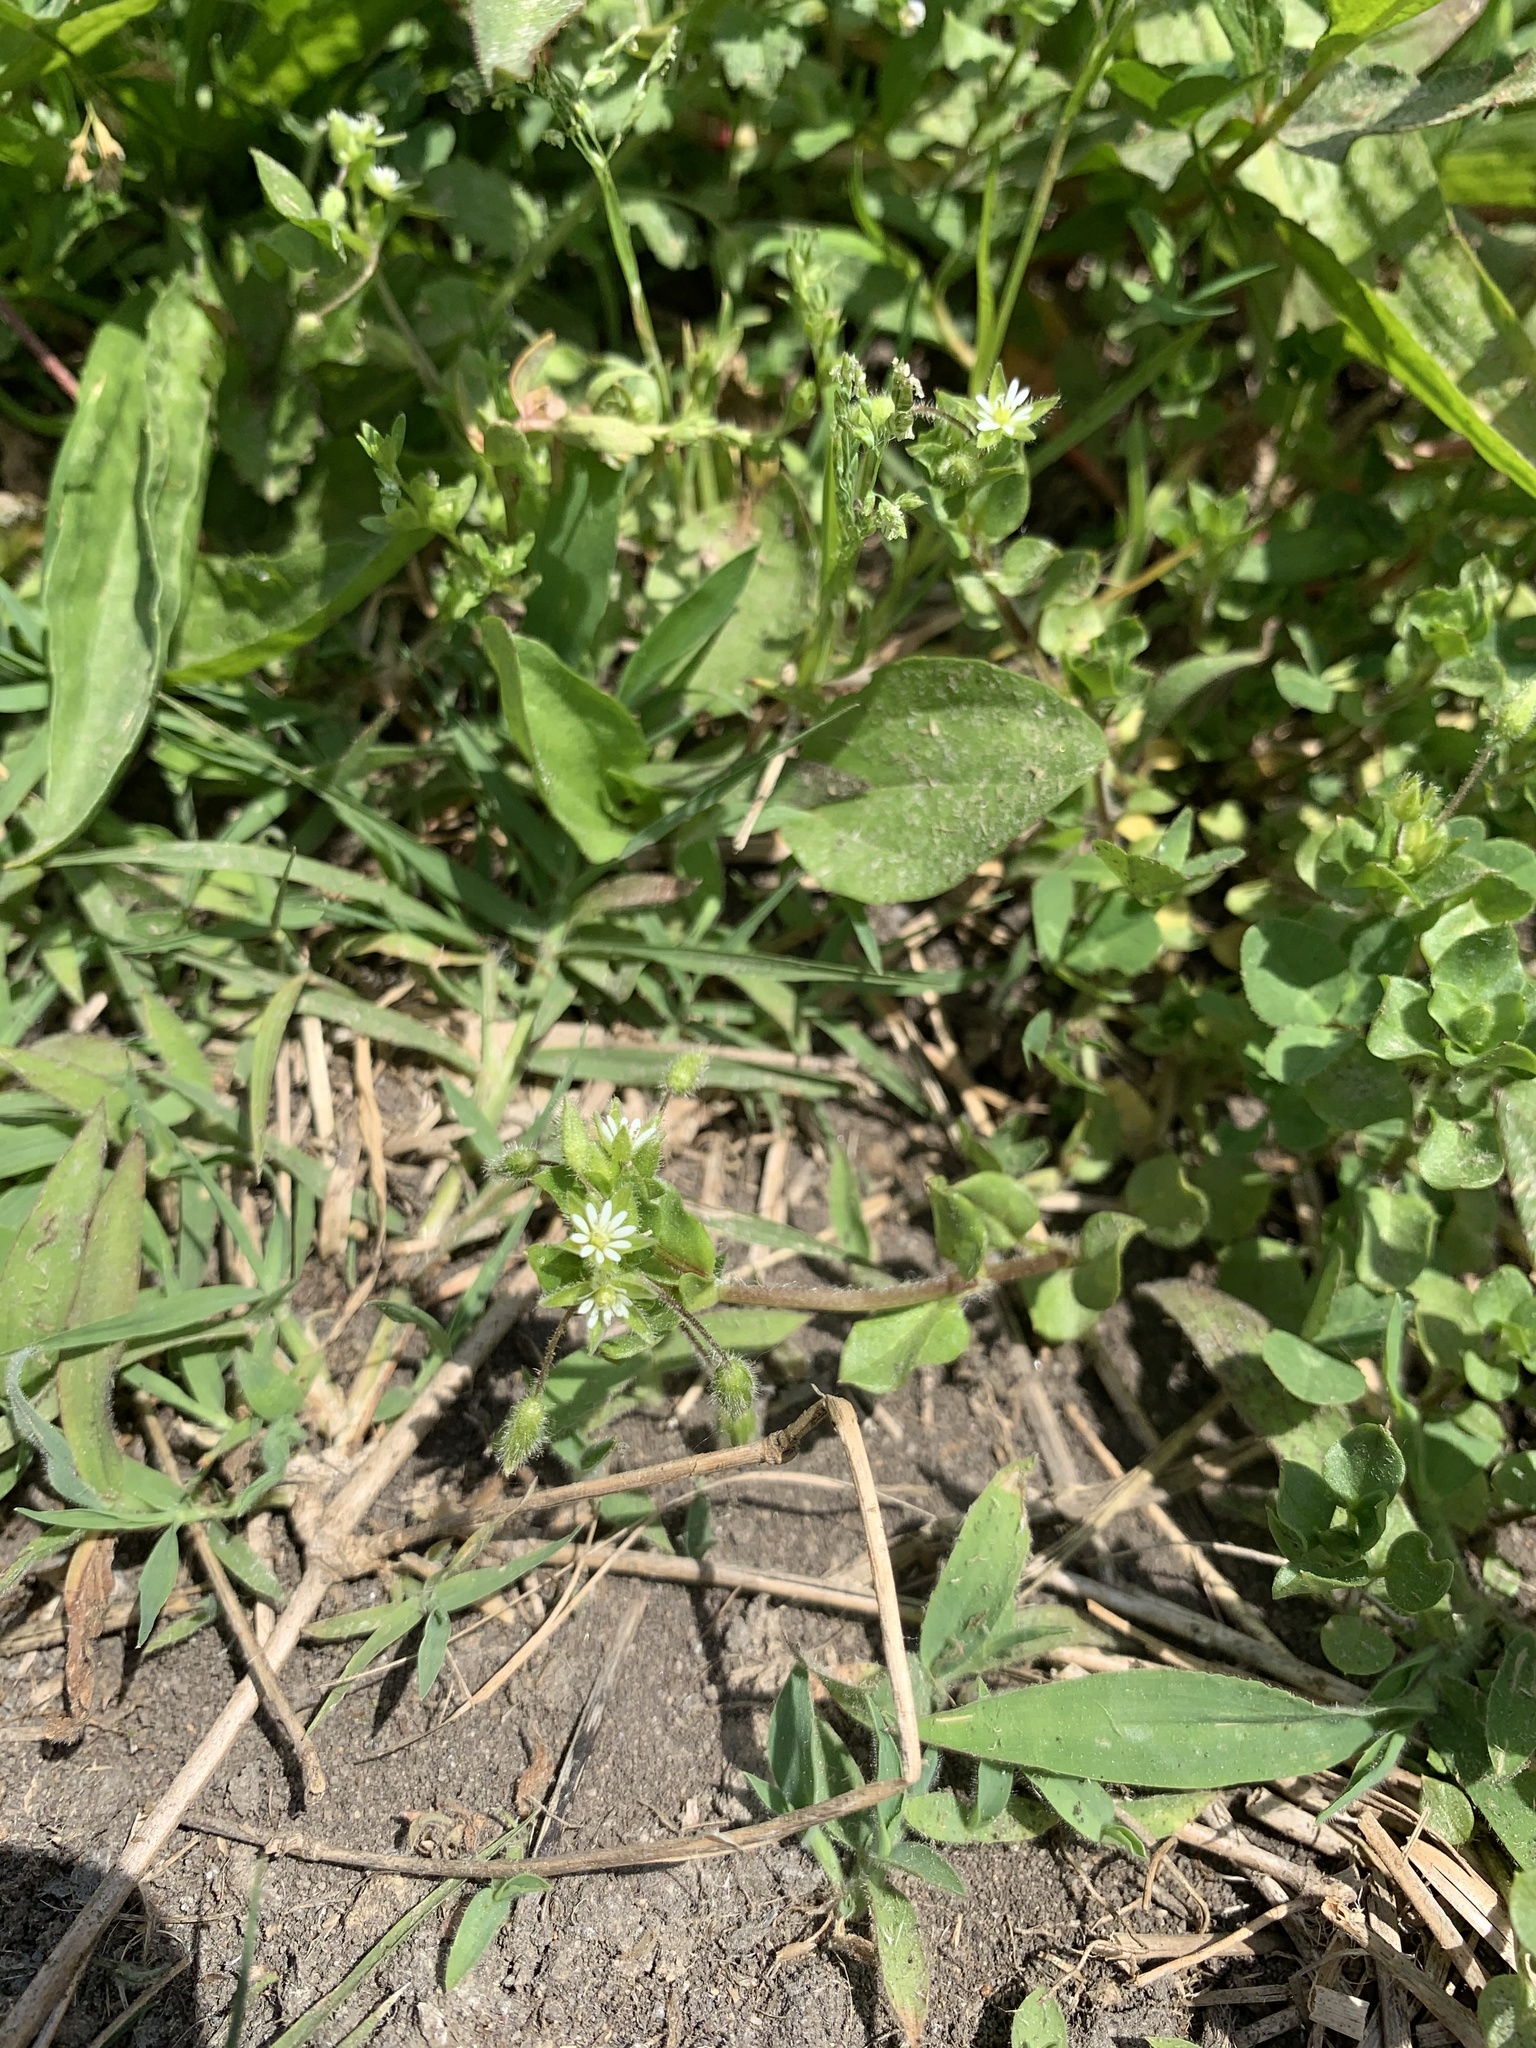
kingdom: Plantae
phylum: Tracheophyta
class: Magnoliopsida
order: Caryophyllales
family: Caryophyllaceae
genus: Stellaria
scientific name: Stellaria media
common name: Common chickweed
